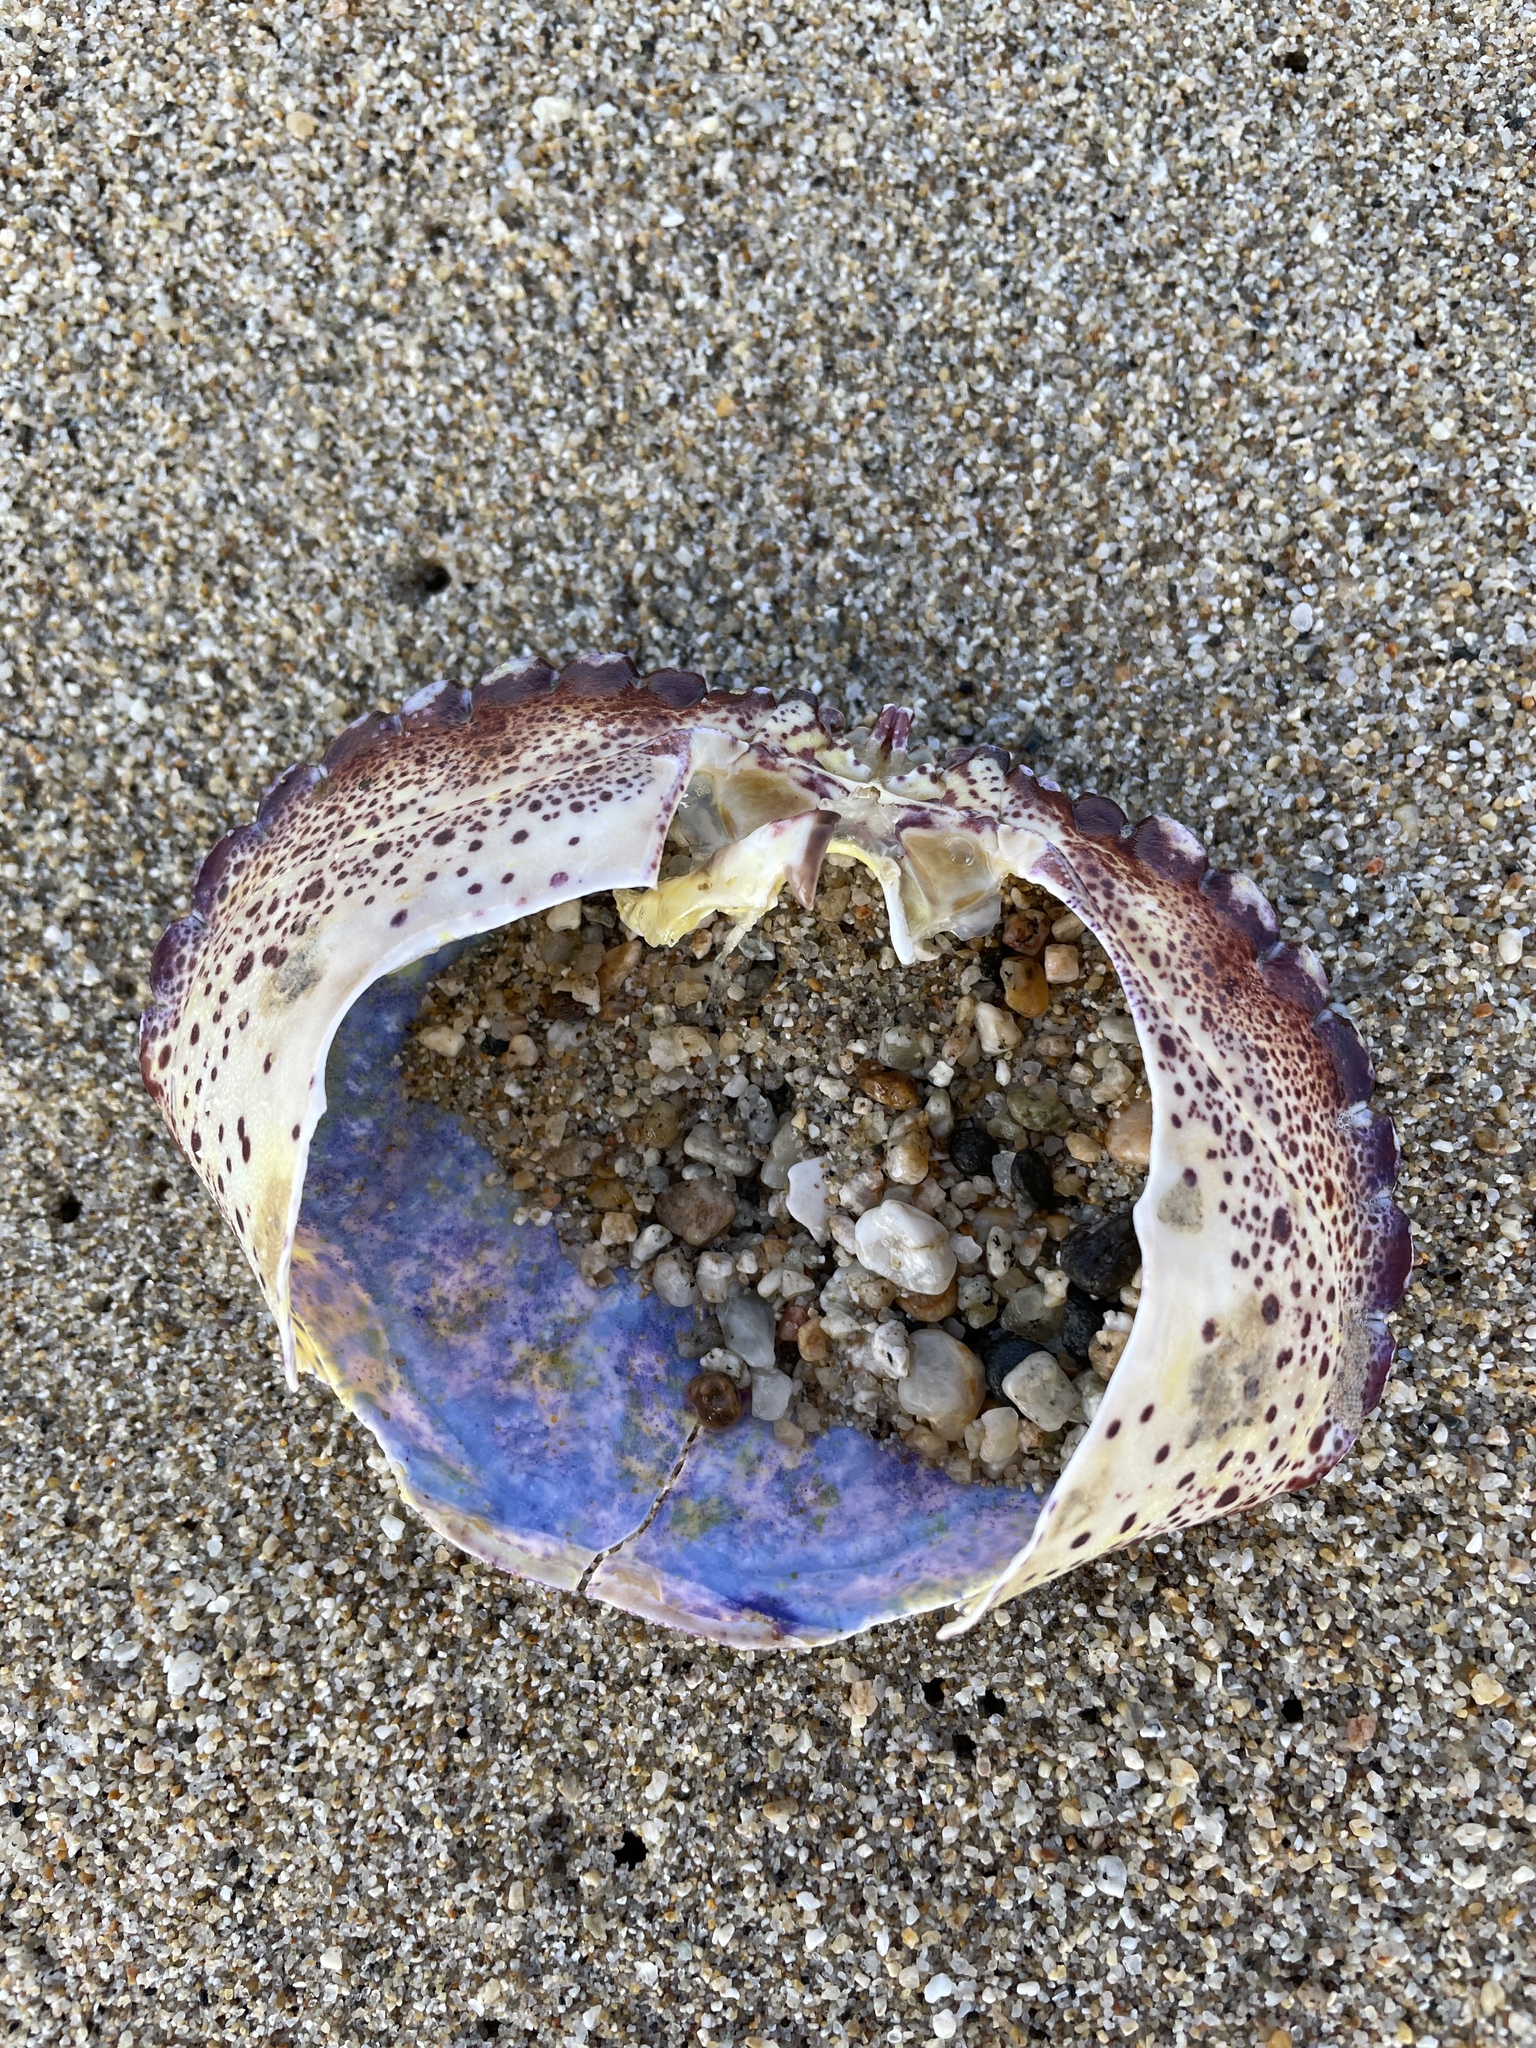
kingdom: Animalia
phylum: Arthropoda
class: Malacostraca
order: Decapoda
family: Cancridae
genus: Romaleon
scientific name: Romaleon antennarium
